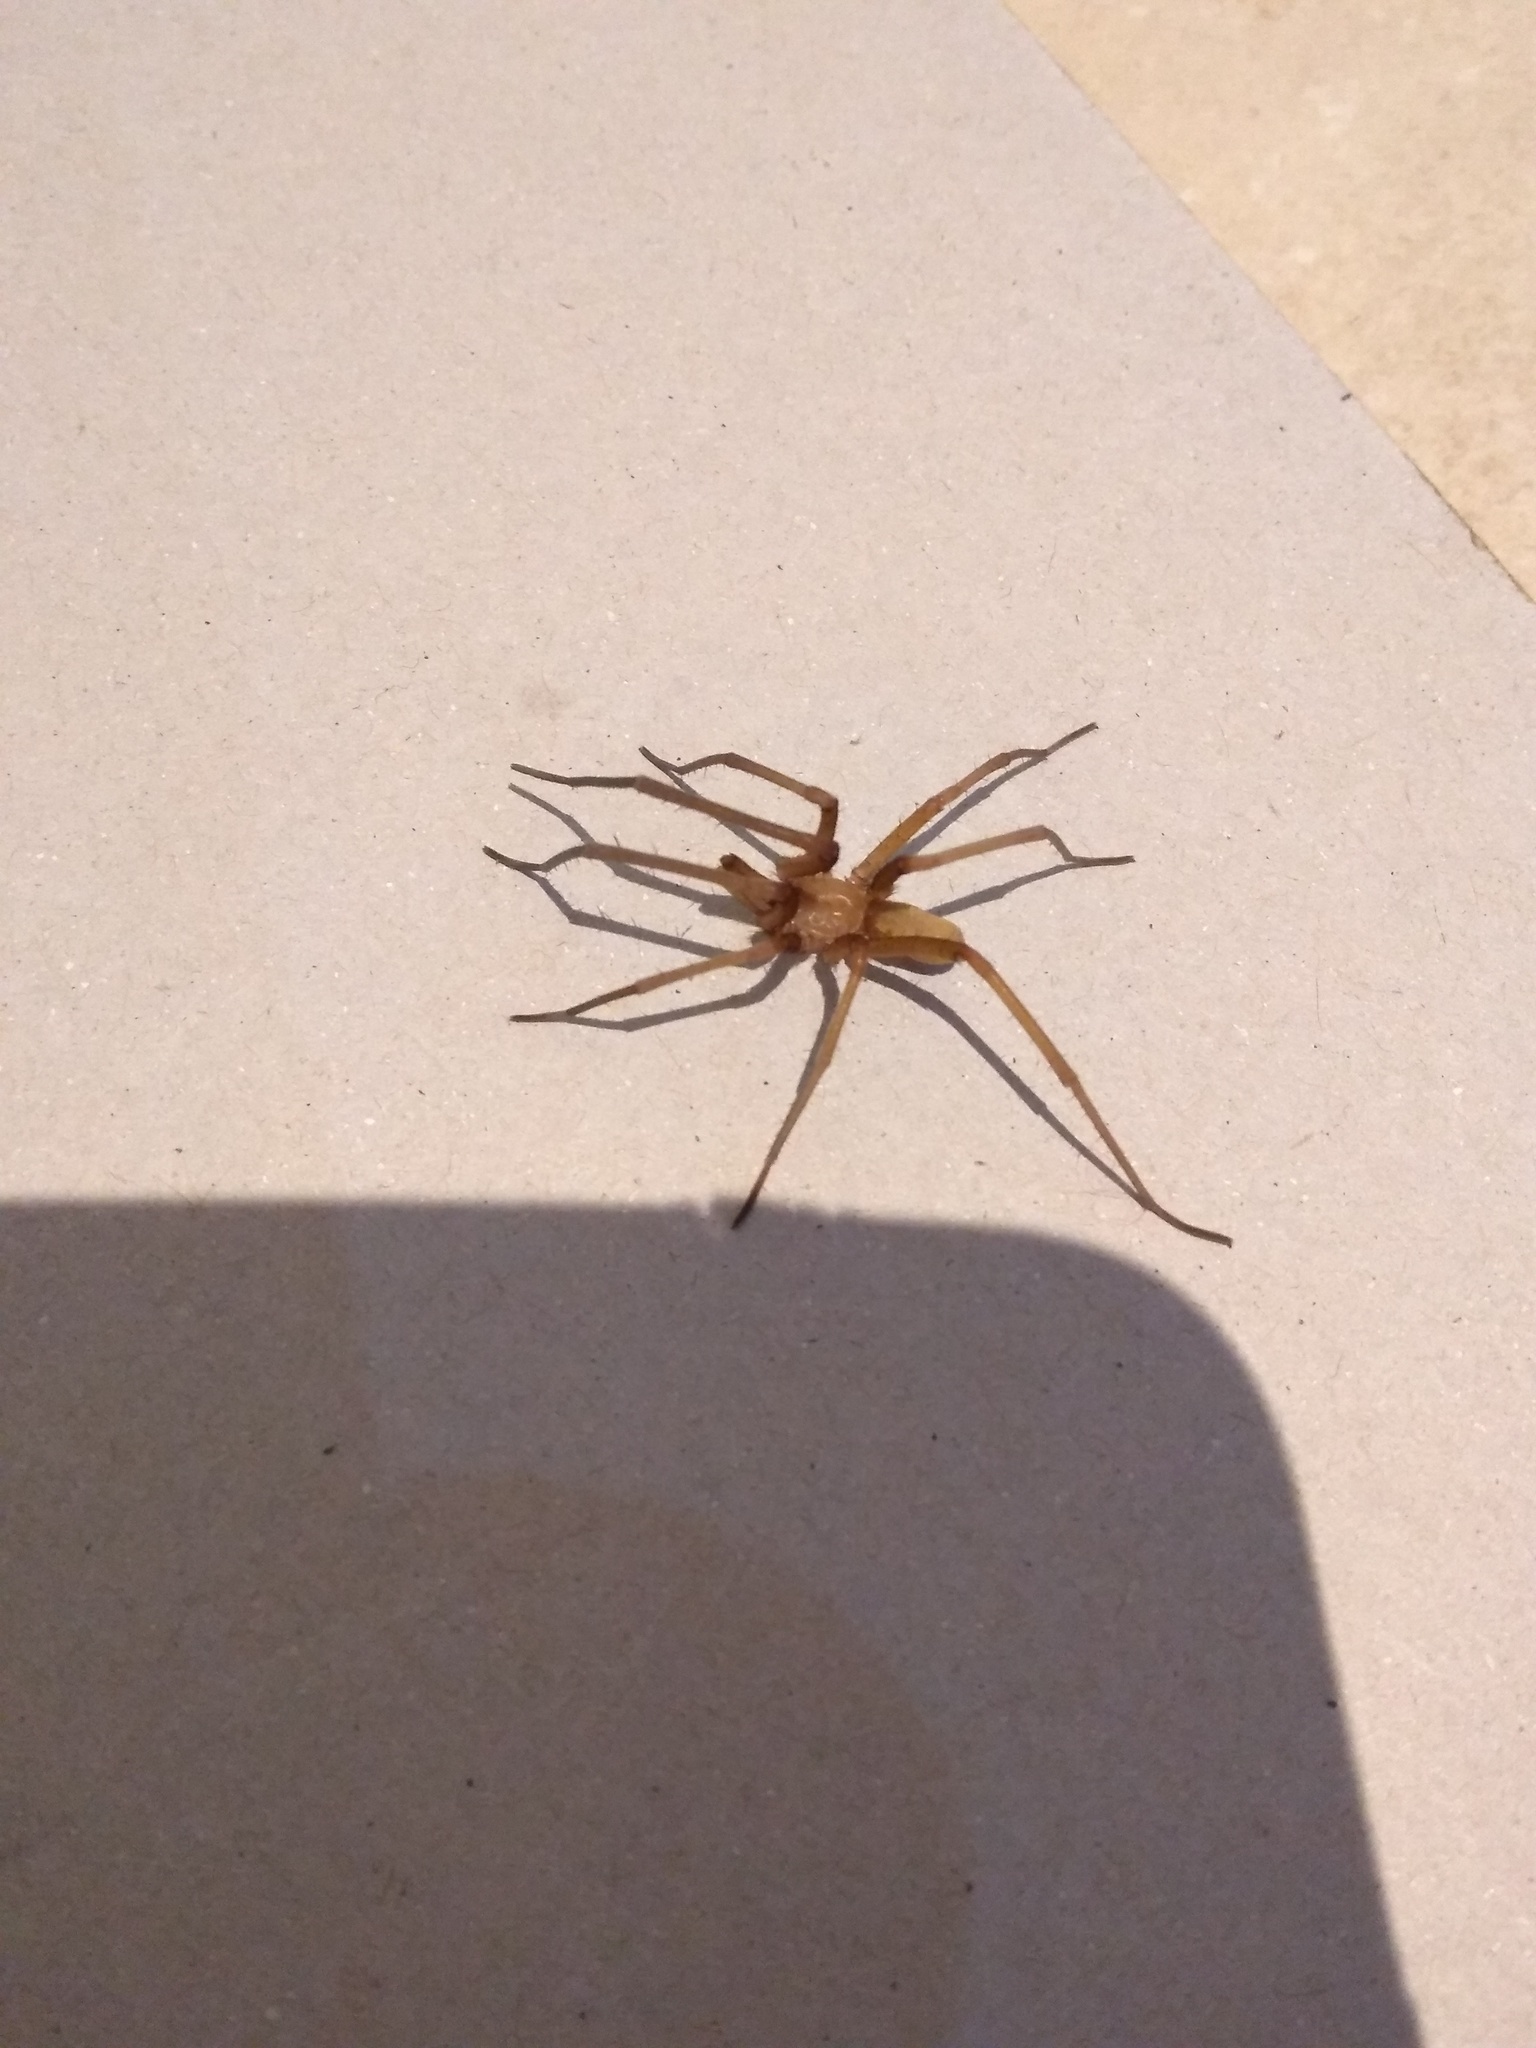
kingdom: Animalia
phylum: Arthropoda
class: Arachnida
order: Araneae
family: Filistatidae
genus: Kukulcania
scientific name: Kukulcania hibernalis
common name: Crevice weaver
